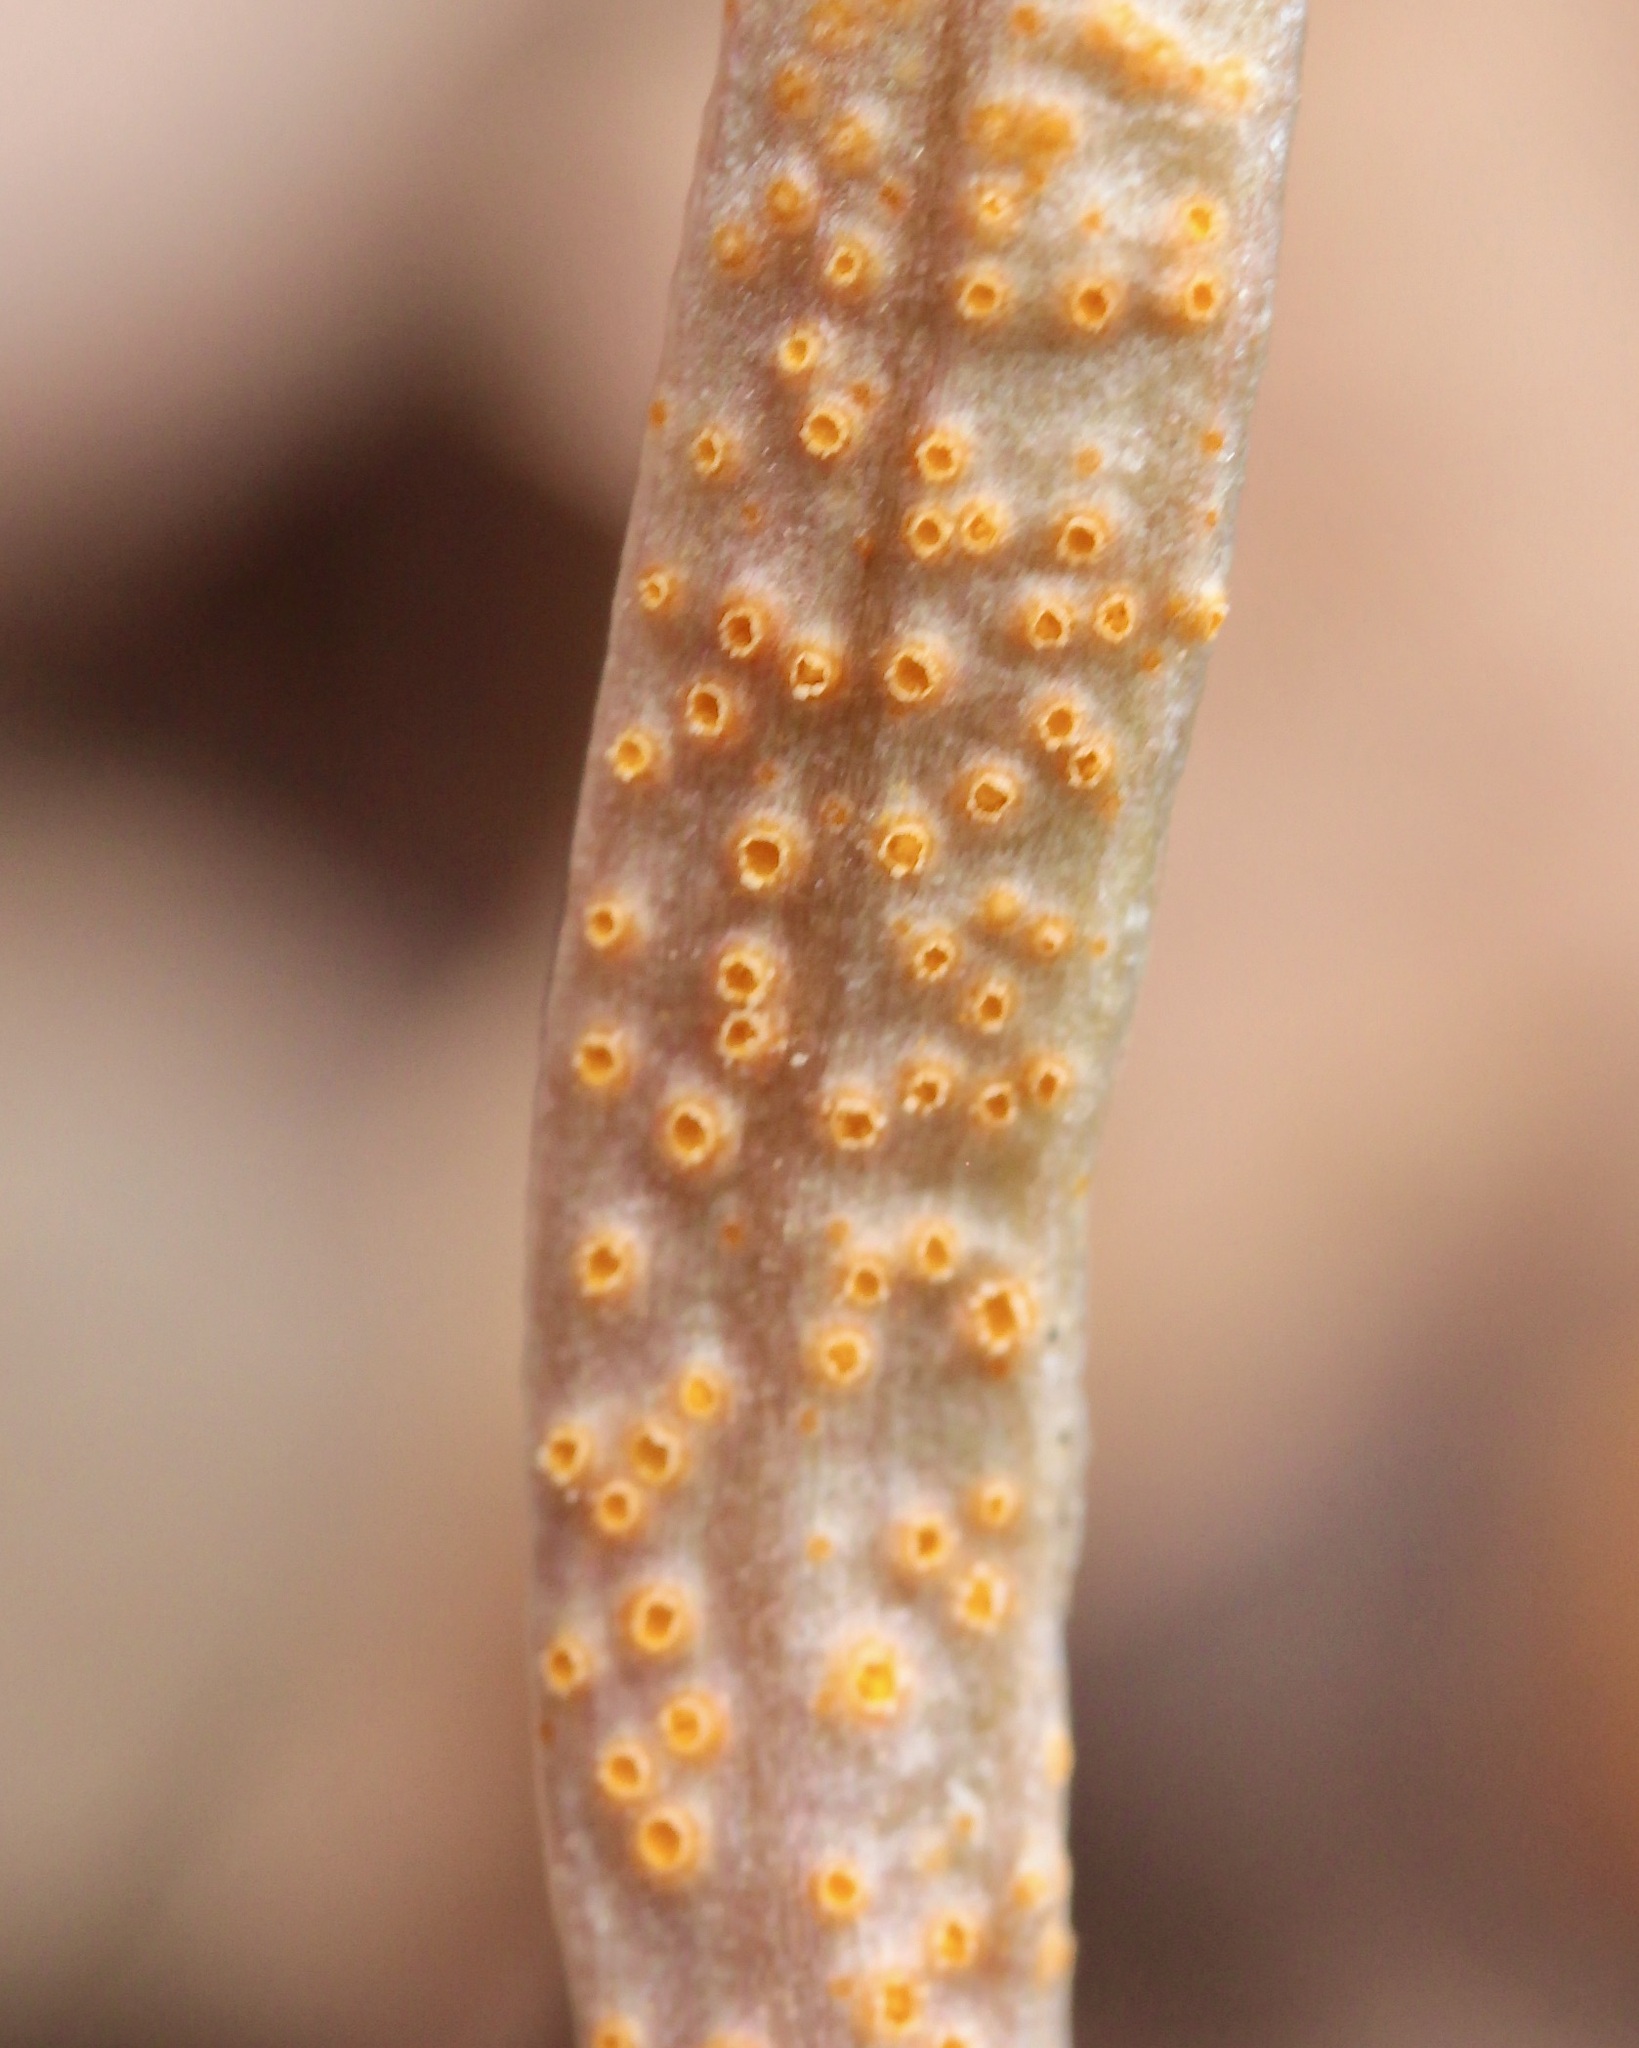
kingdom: Fungi
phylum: Basidiomycota
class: Pucciniomycetes
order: Pucciniales
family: Pucciniaceae
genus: Puccinia
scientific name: Puccinia mariae-wilsoniae
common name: Spring beauty rust
